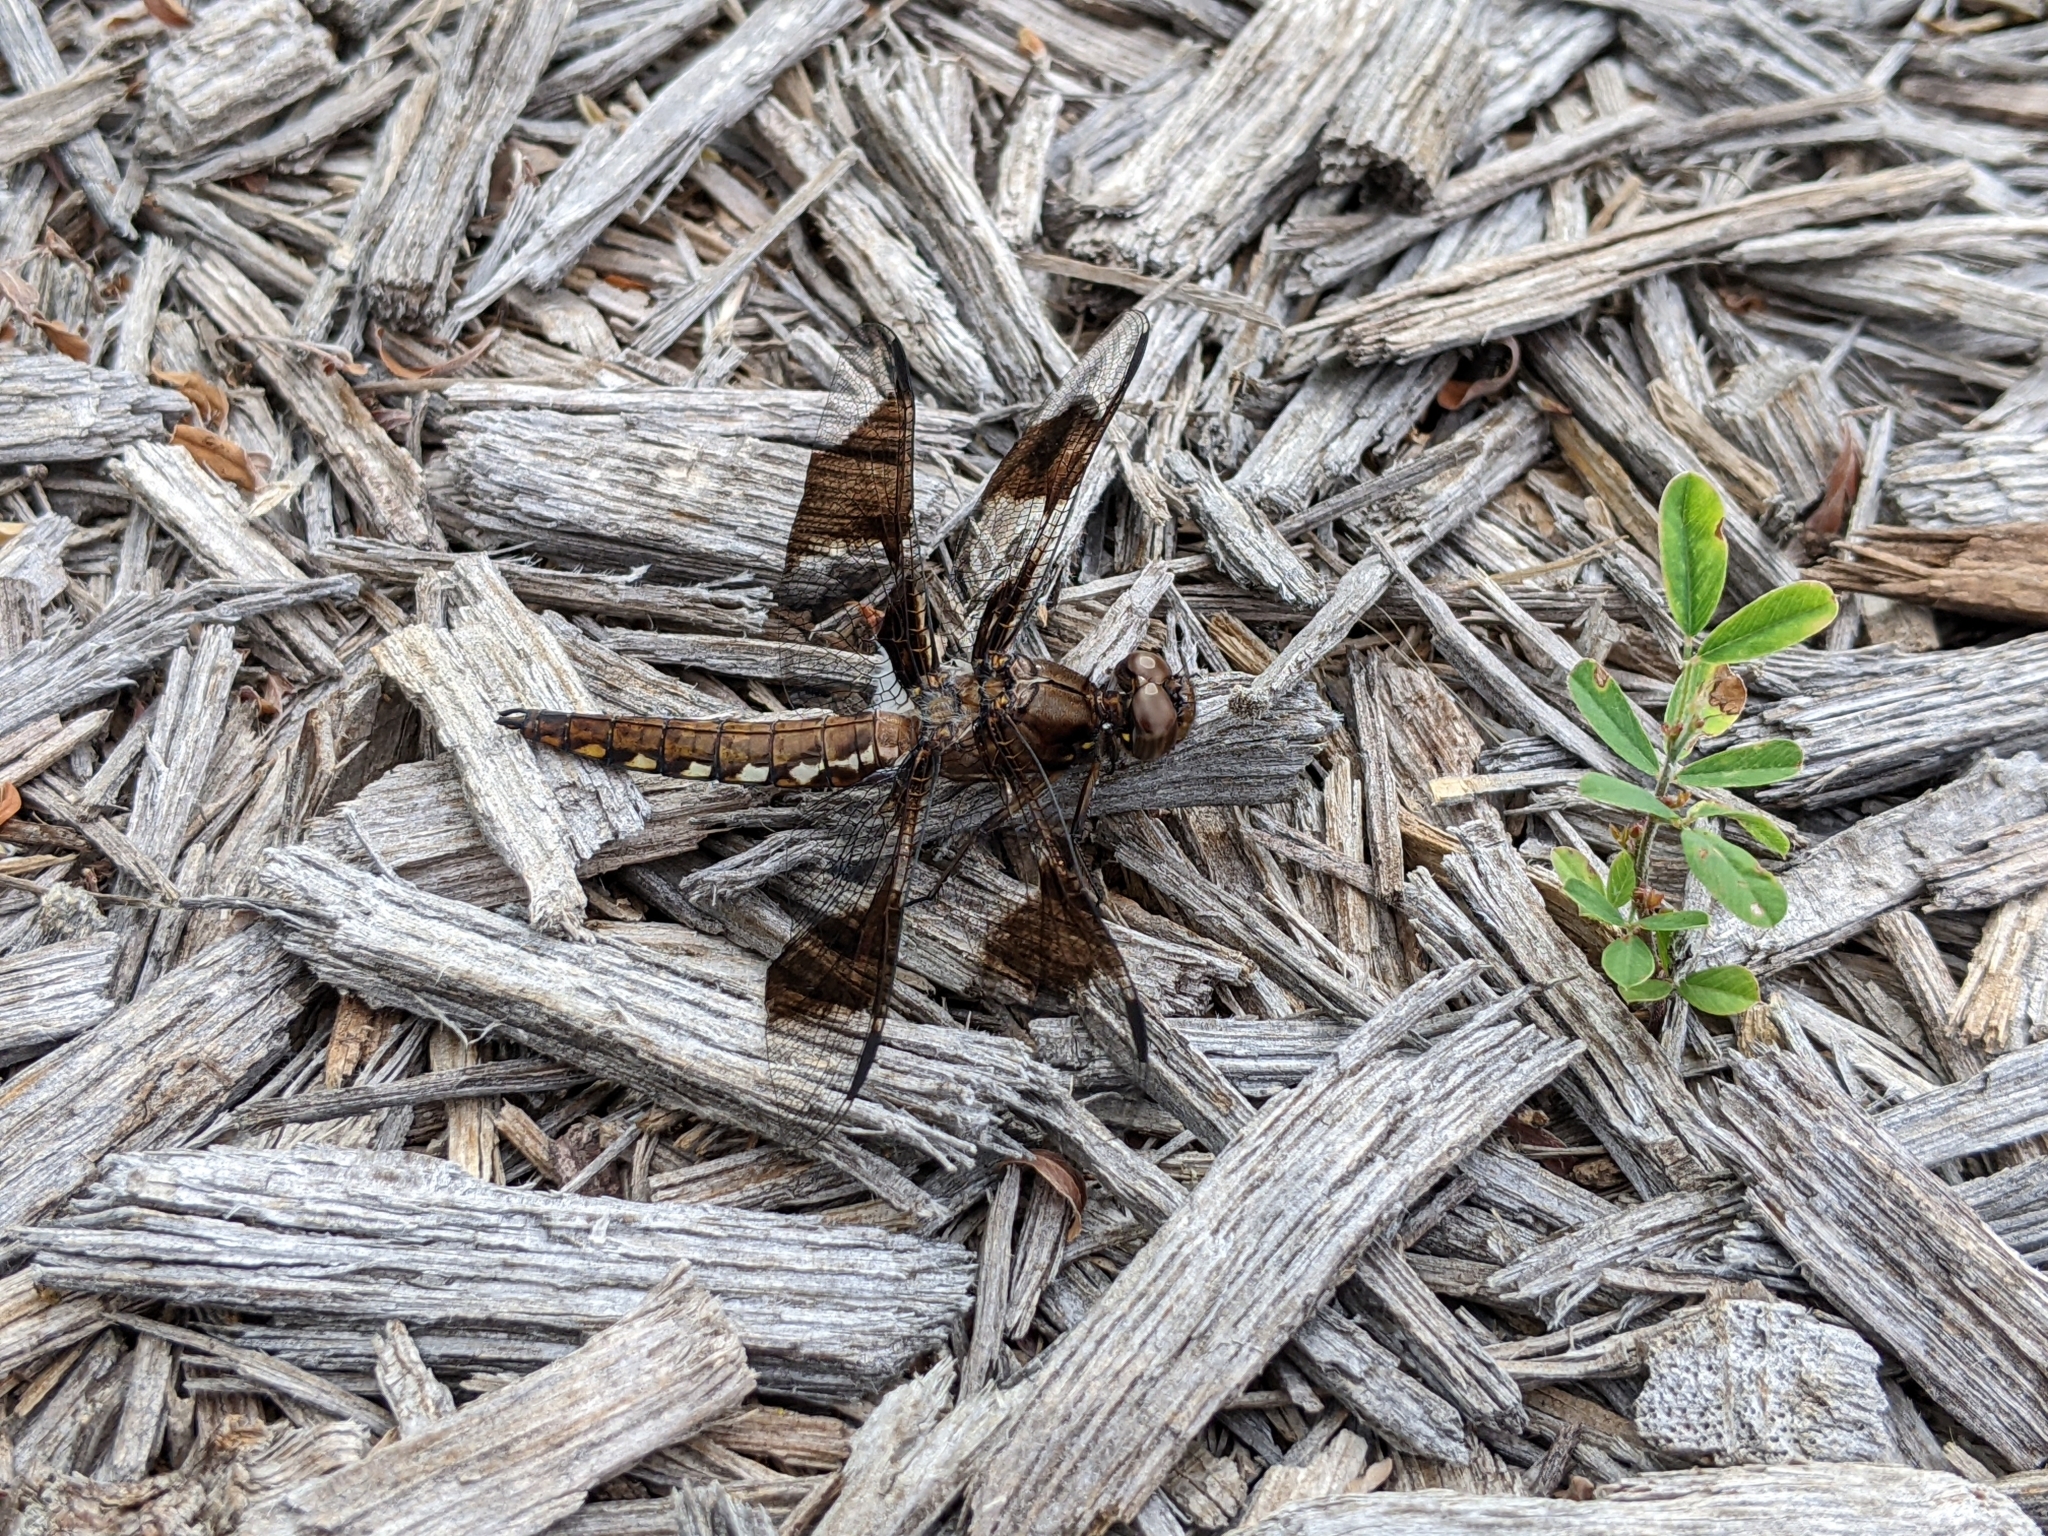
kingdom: Animalia
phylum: Arthropoda
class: Insecta
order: Odonata
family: Libellulidae
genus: Plathemis
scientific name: Plathemis lydia
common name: Common whitetail
